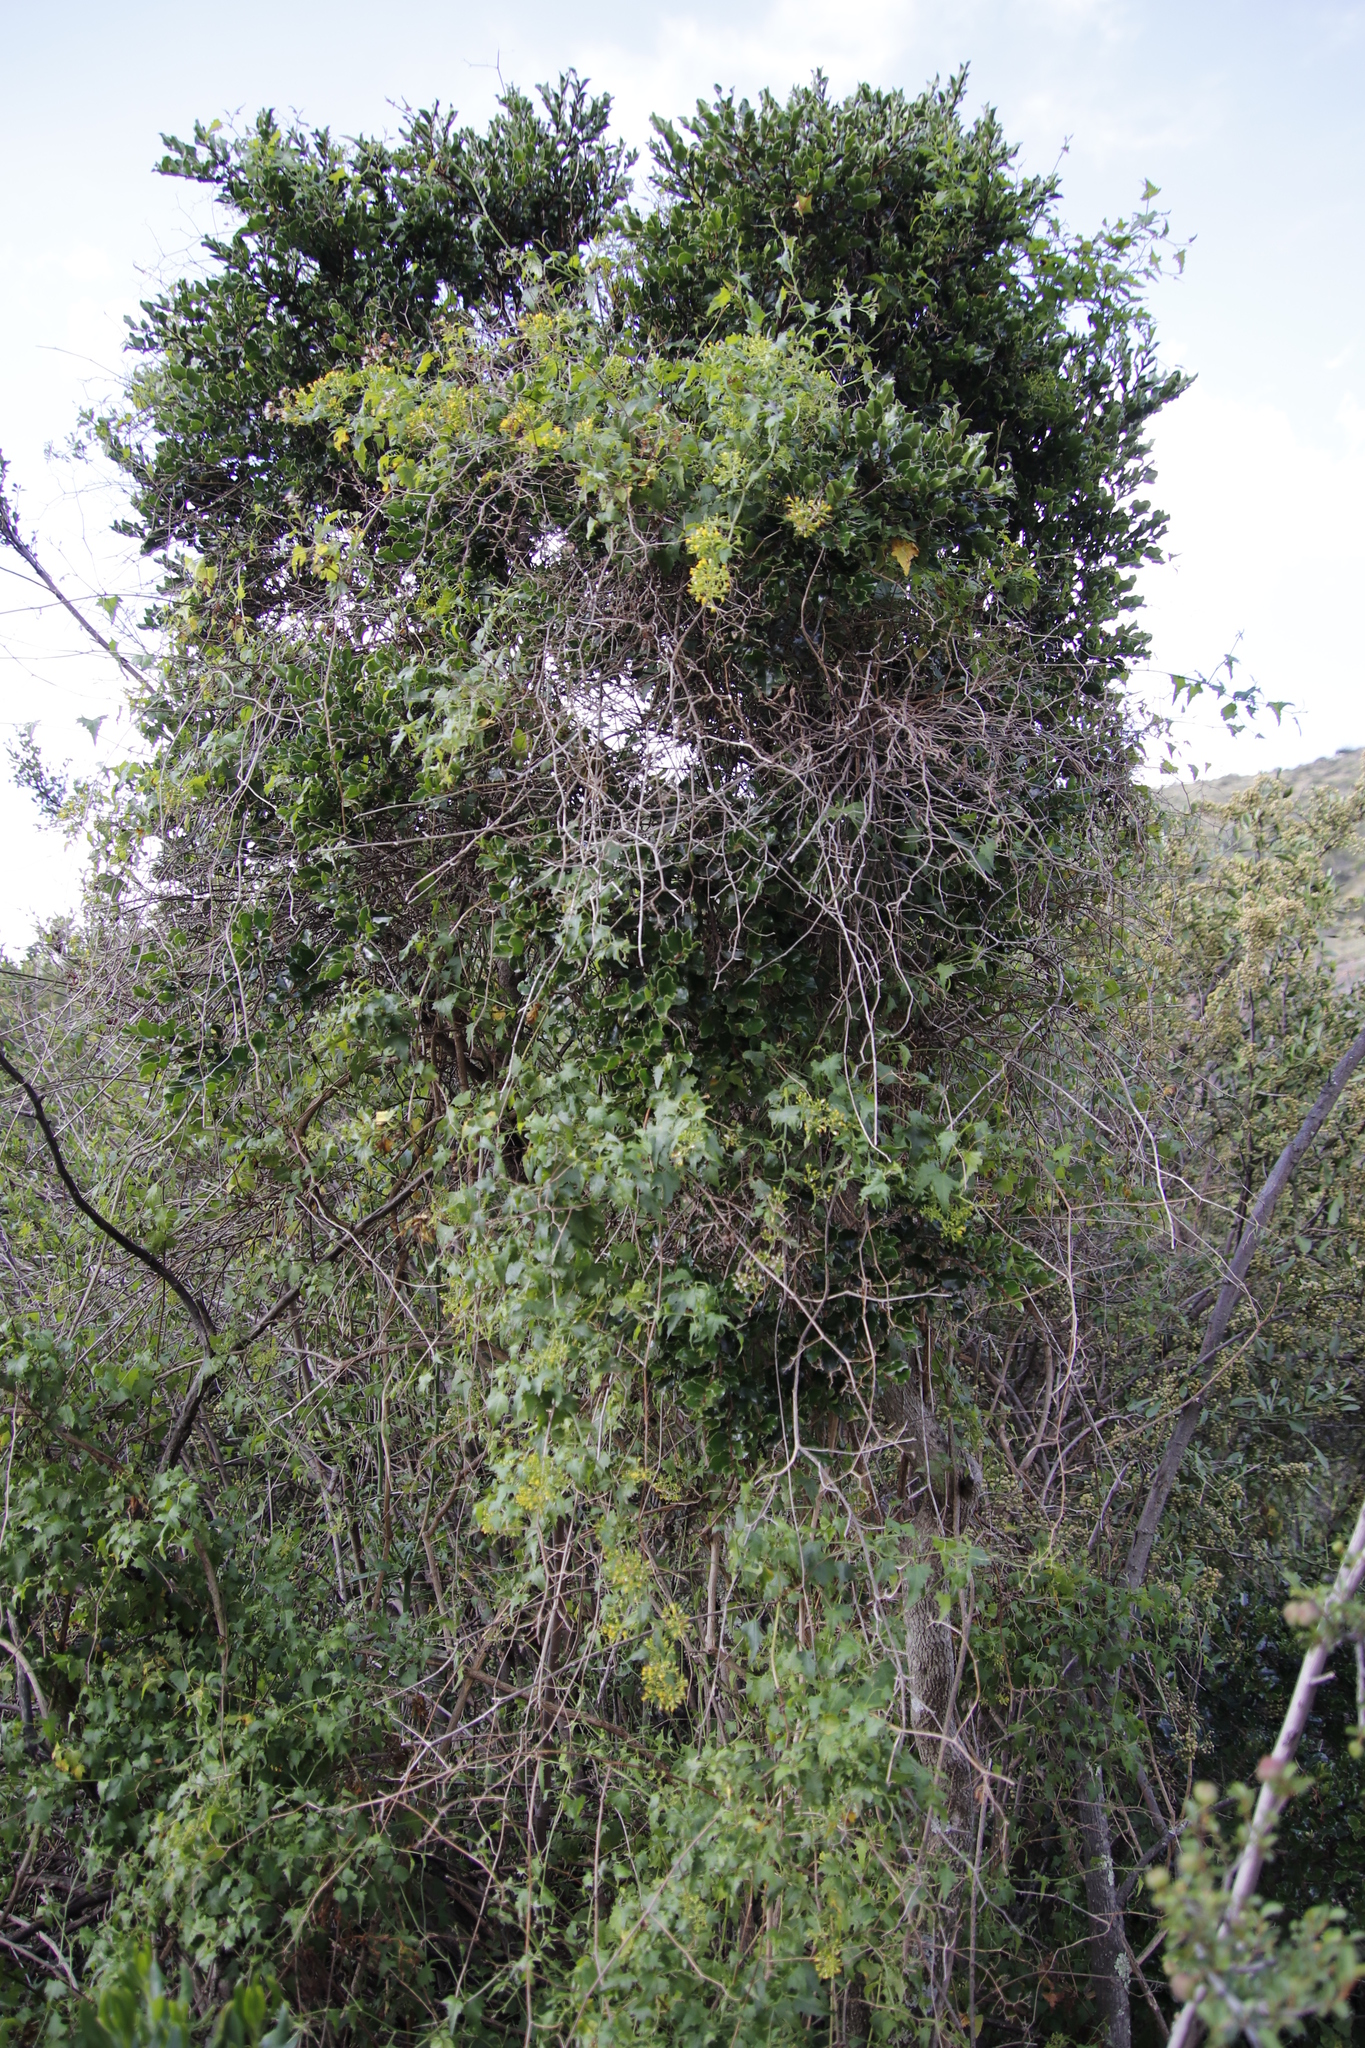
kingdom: Plantae
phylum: Tracheophyta
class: Magnoliopsida
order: Asterales
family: Asteraceae
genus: Senecio
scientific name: Senecio deltoideus
